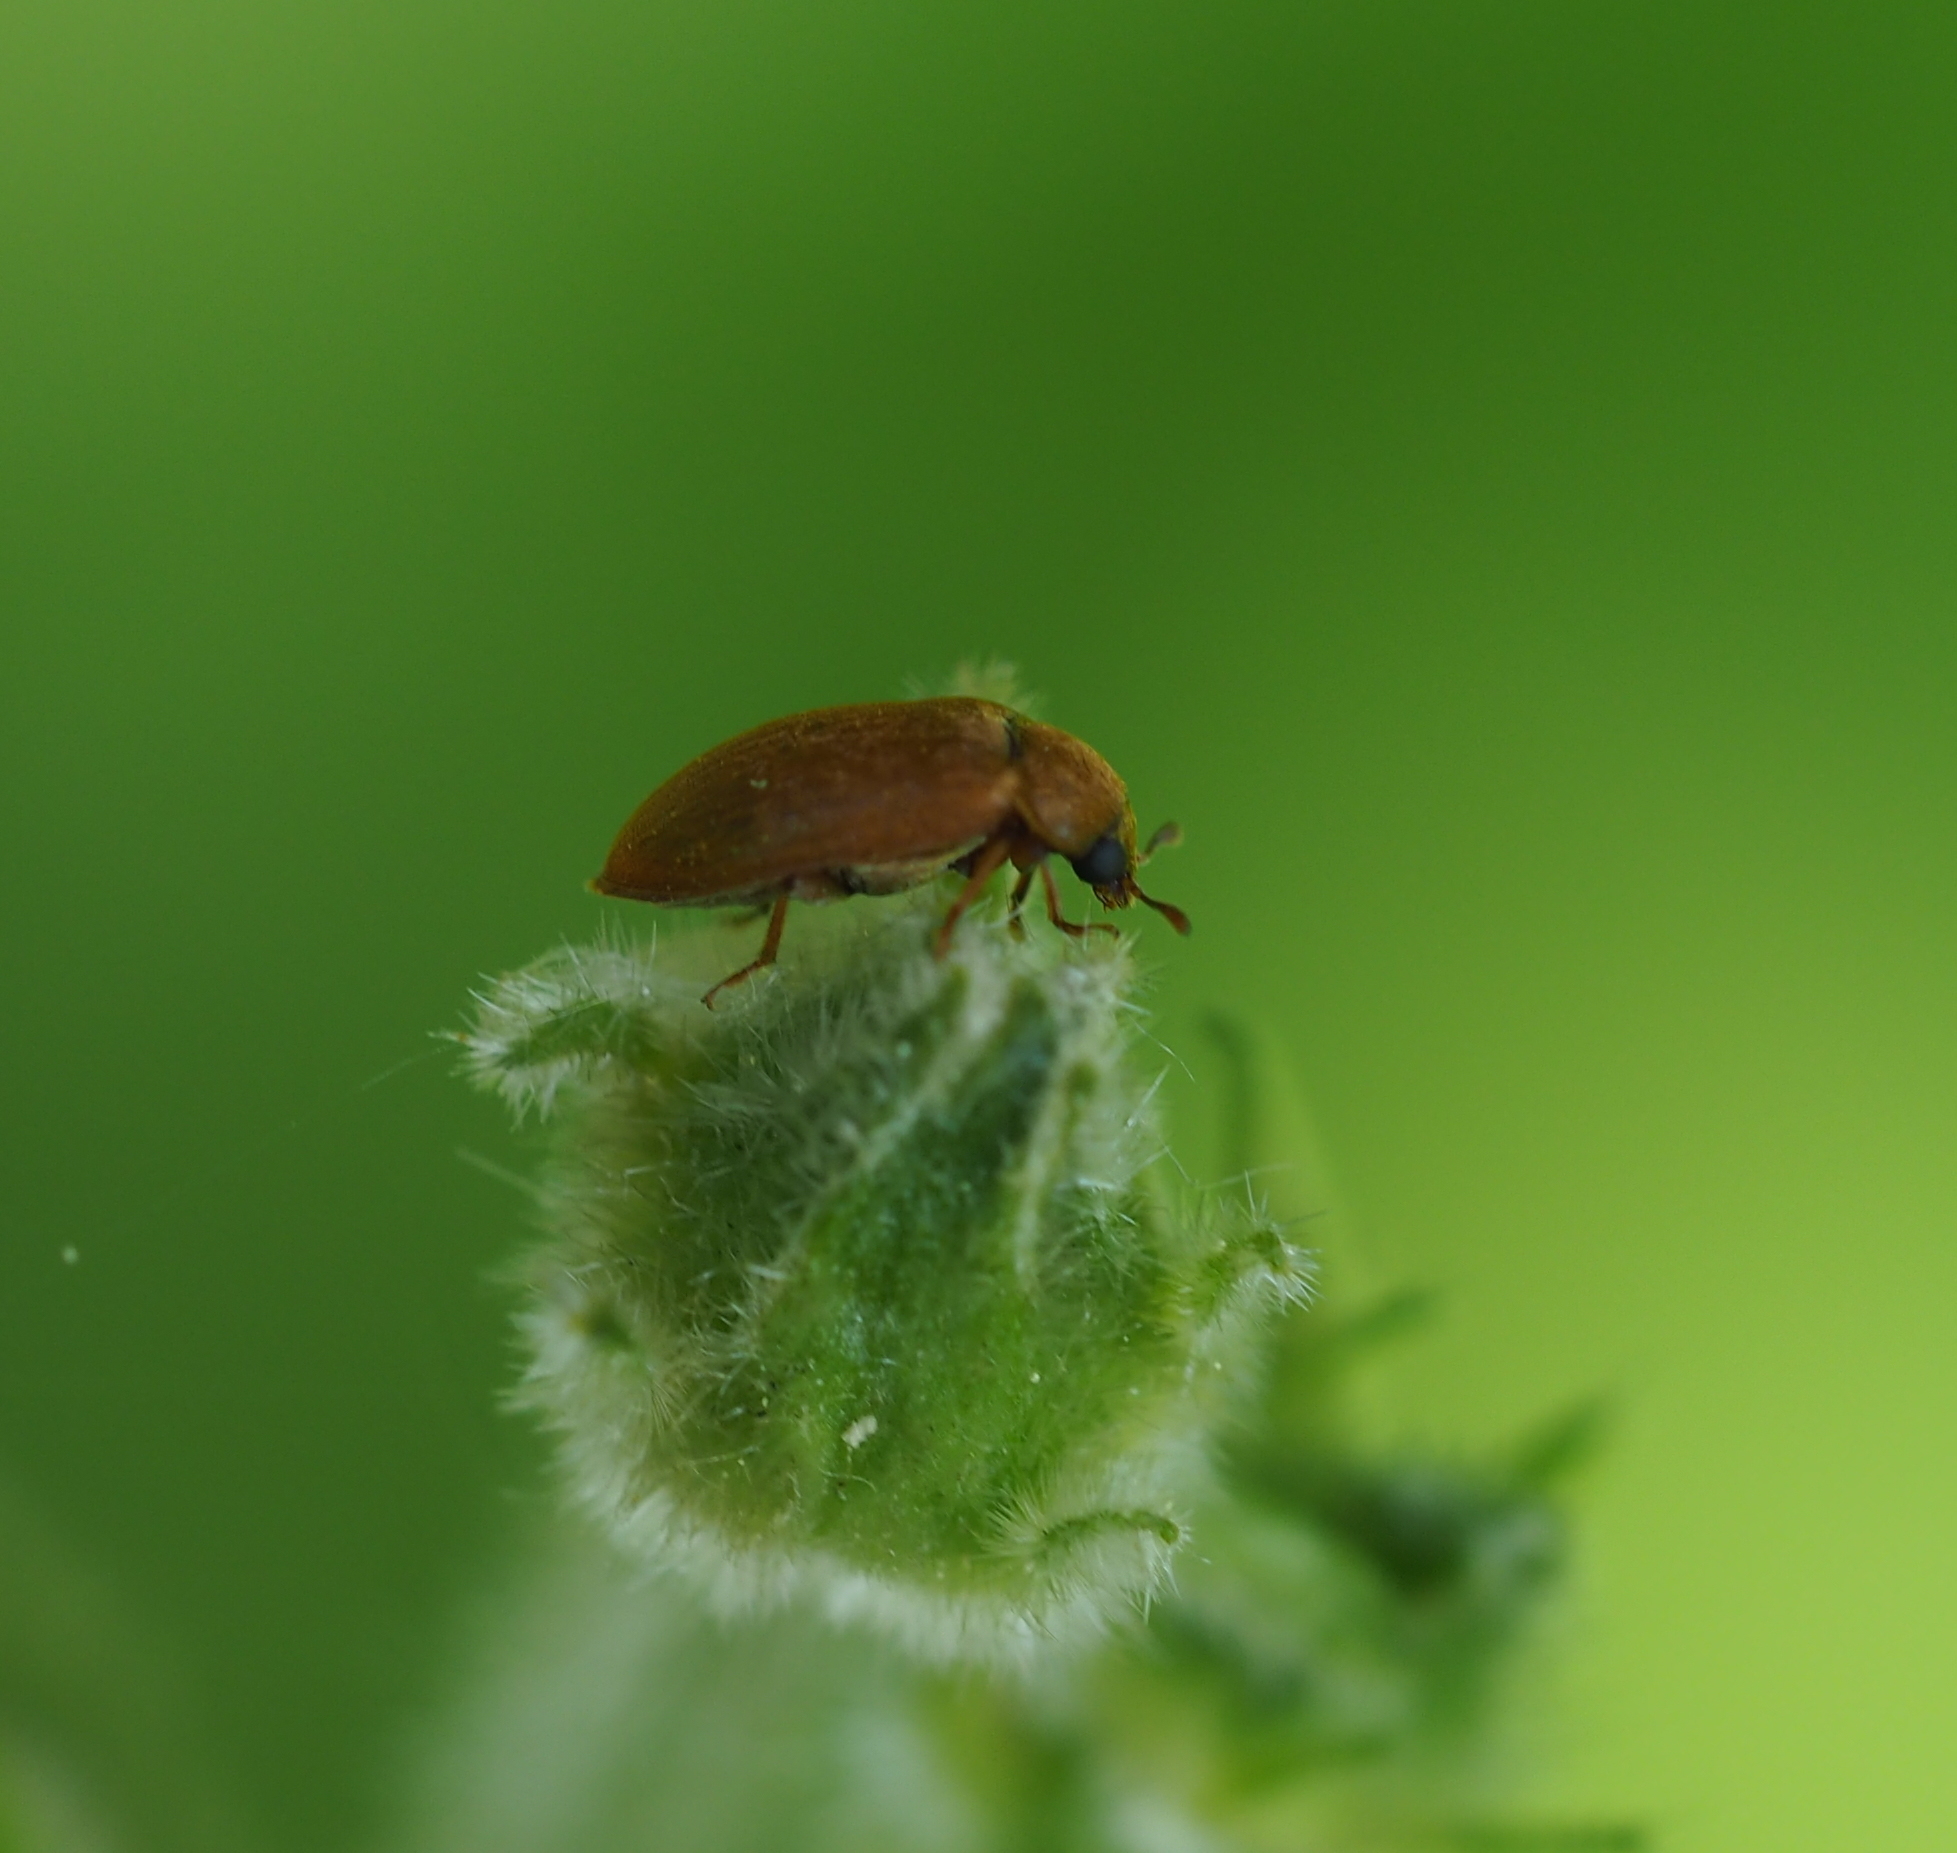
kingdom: Animalia
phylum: Arthropoda
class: Insecta
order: Coleoptera
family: Byturidae
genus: Byturus
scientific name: Byturus ochraceus
